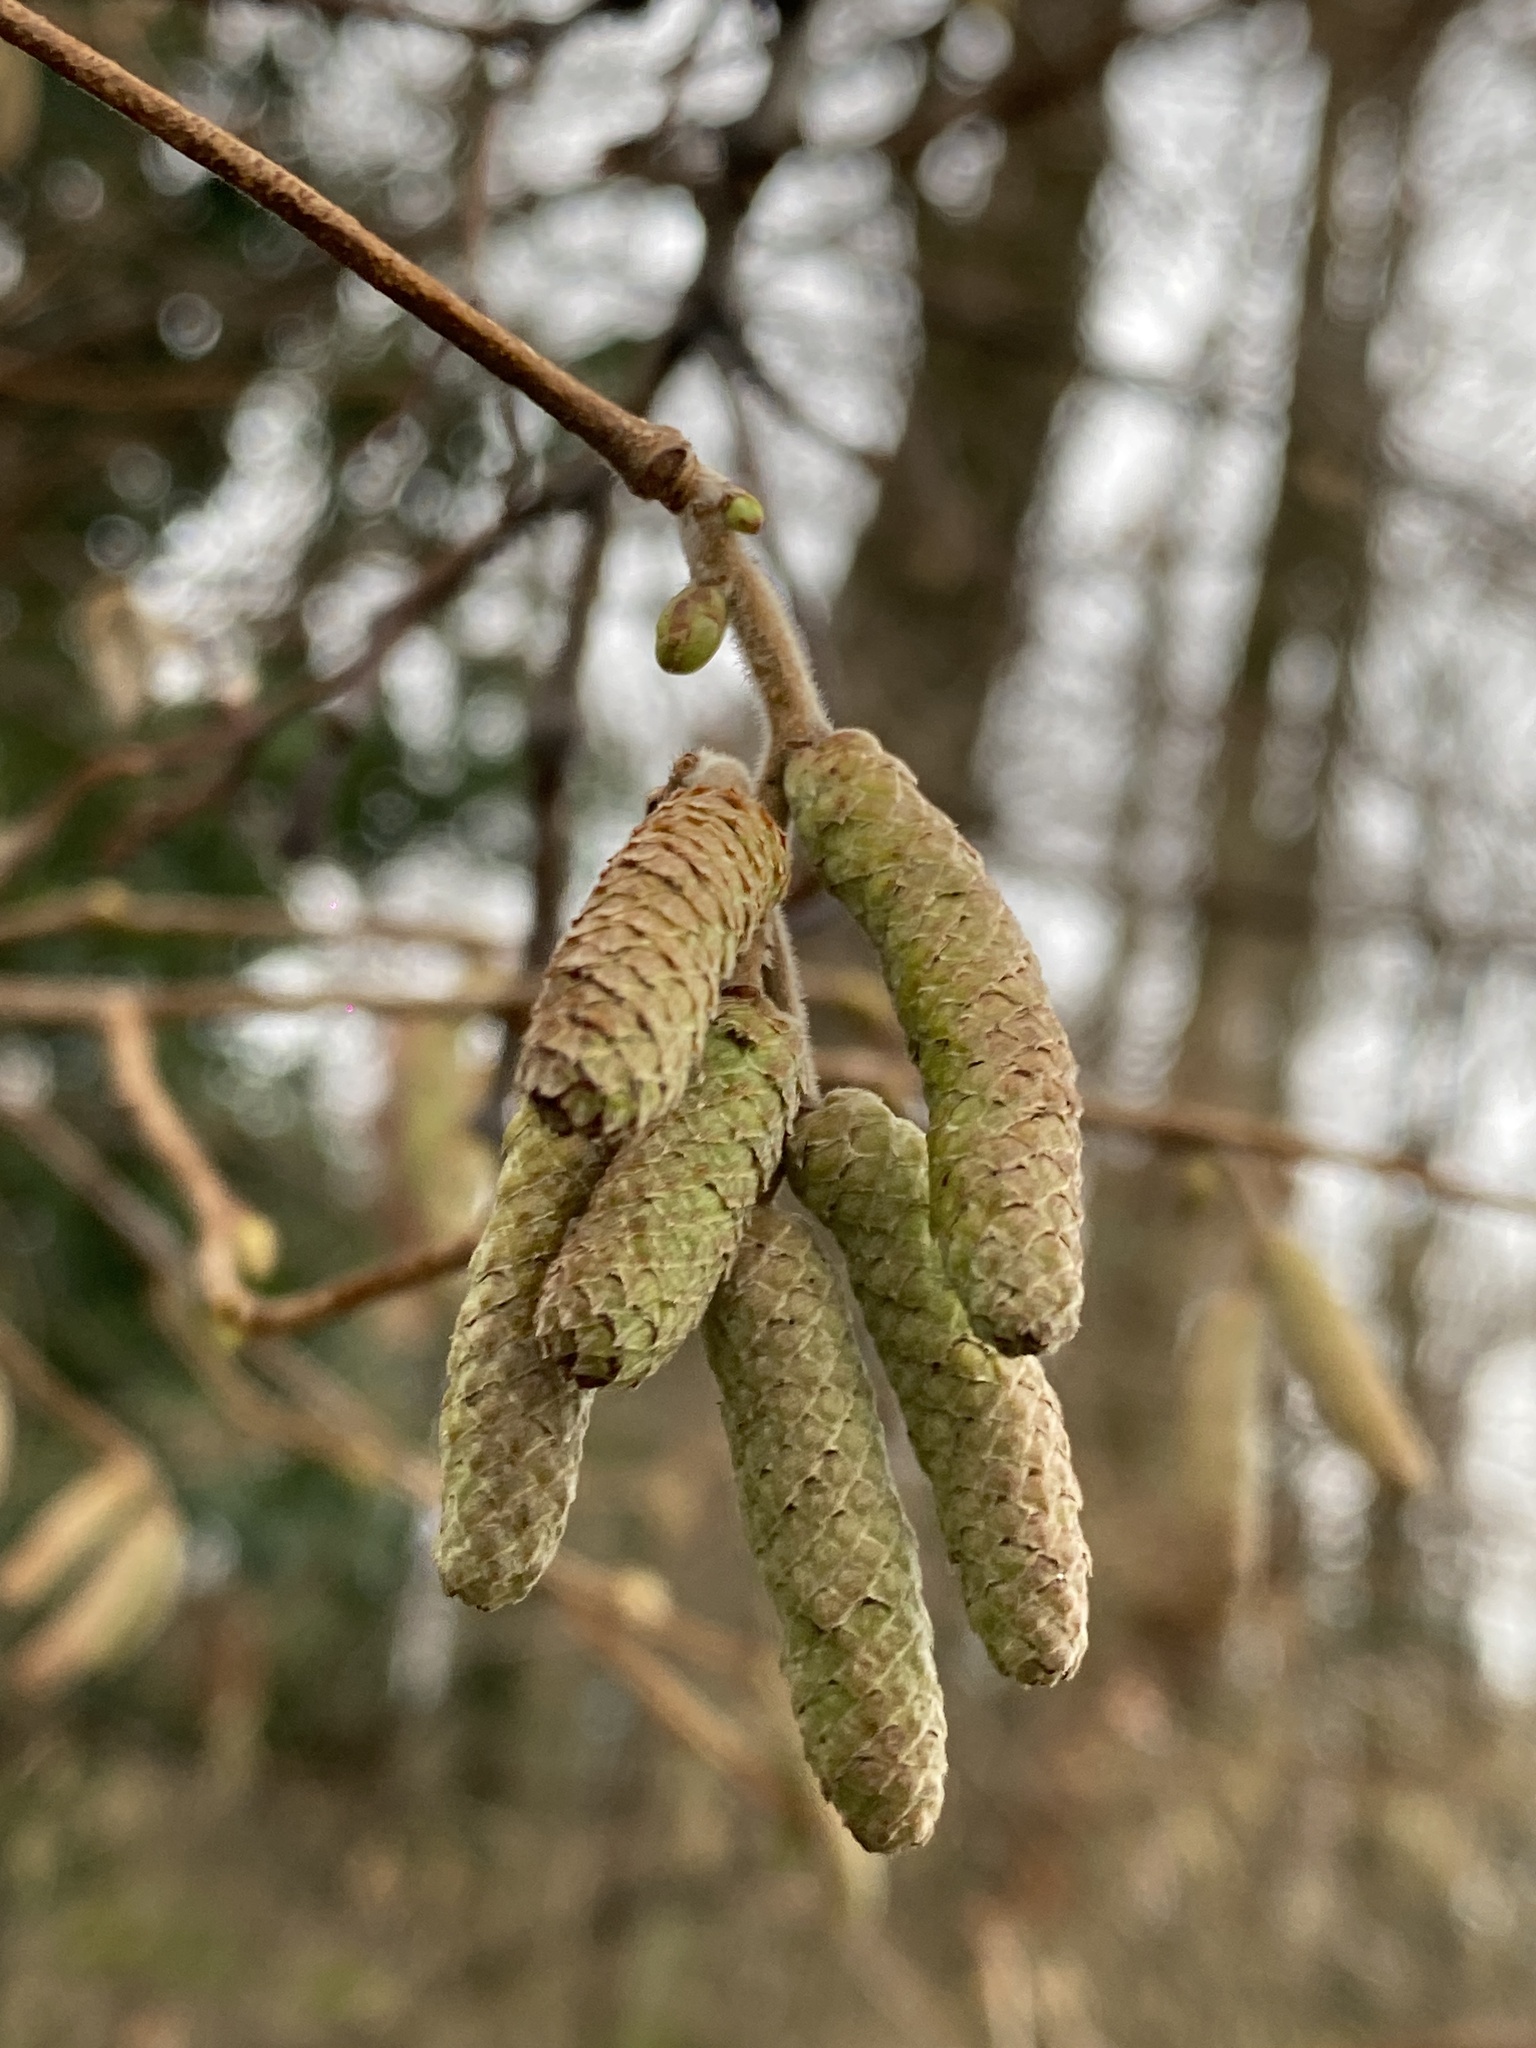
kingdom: Plantae
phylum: Tracheophyta
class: Magnoliopsida
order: Fagales
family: Betulaceae
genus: Corylus
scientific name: Corylus avellana
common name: European hazel
